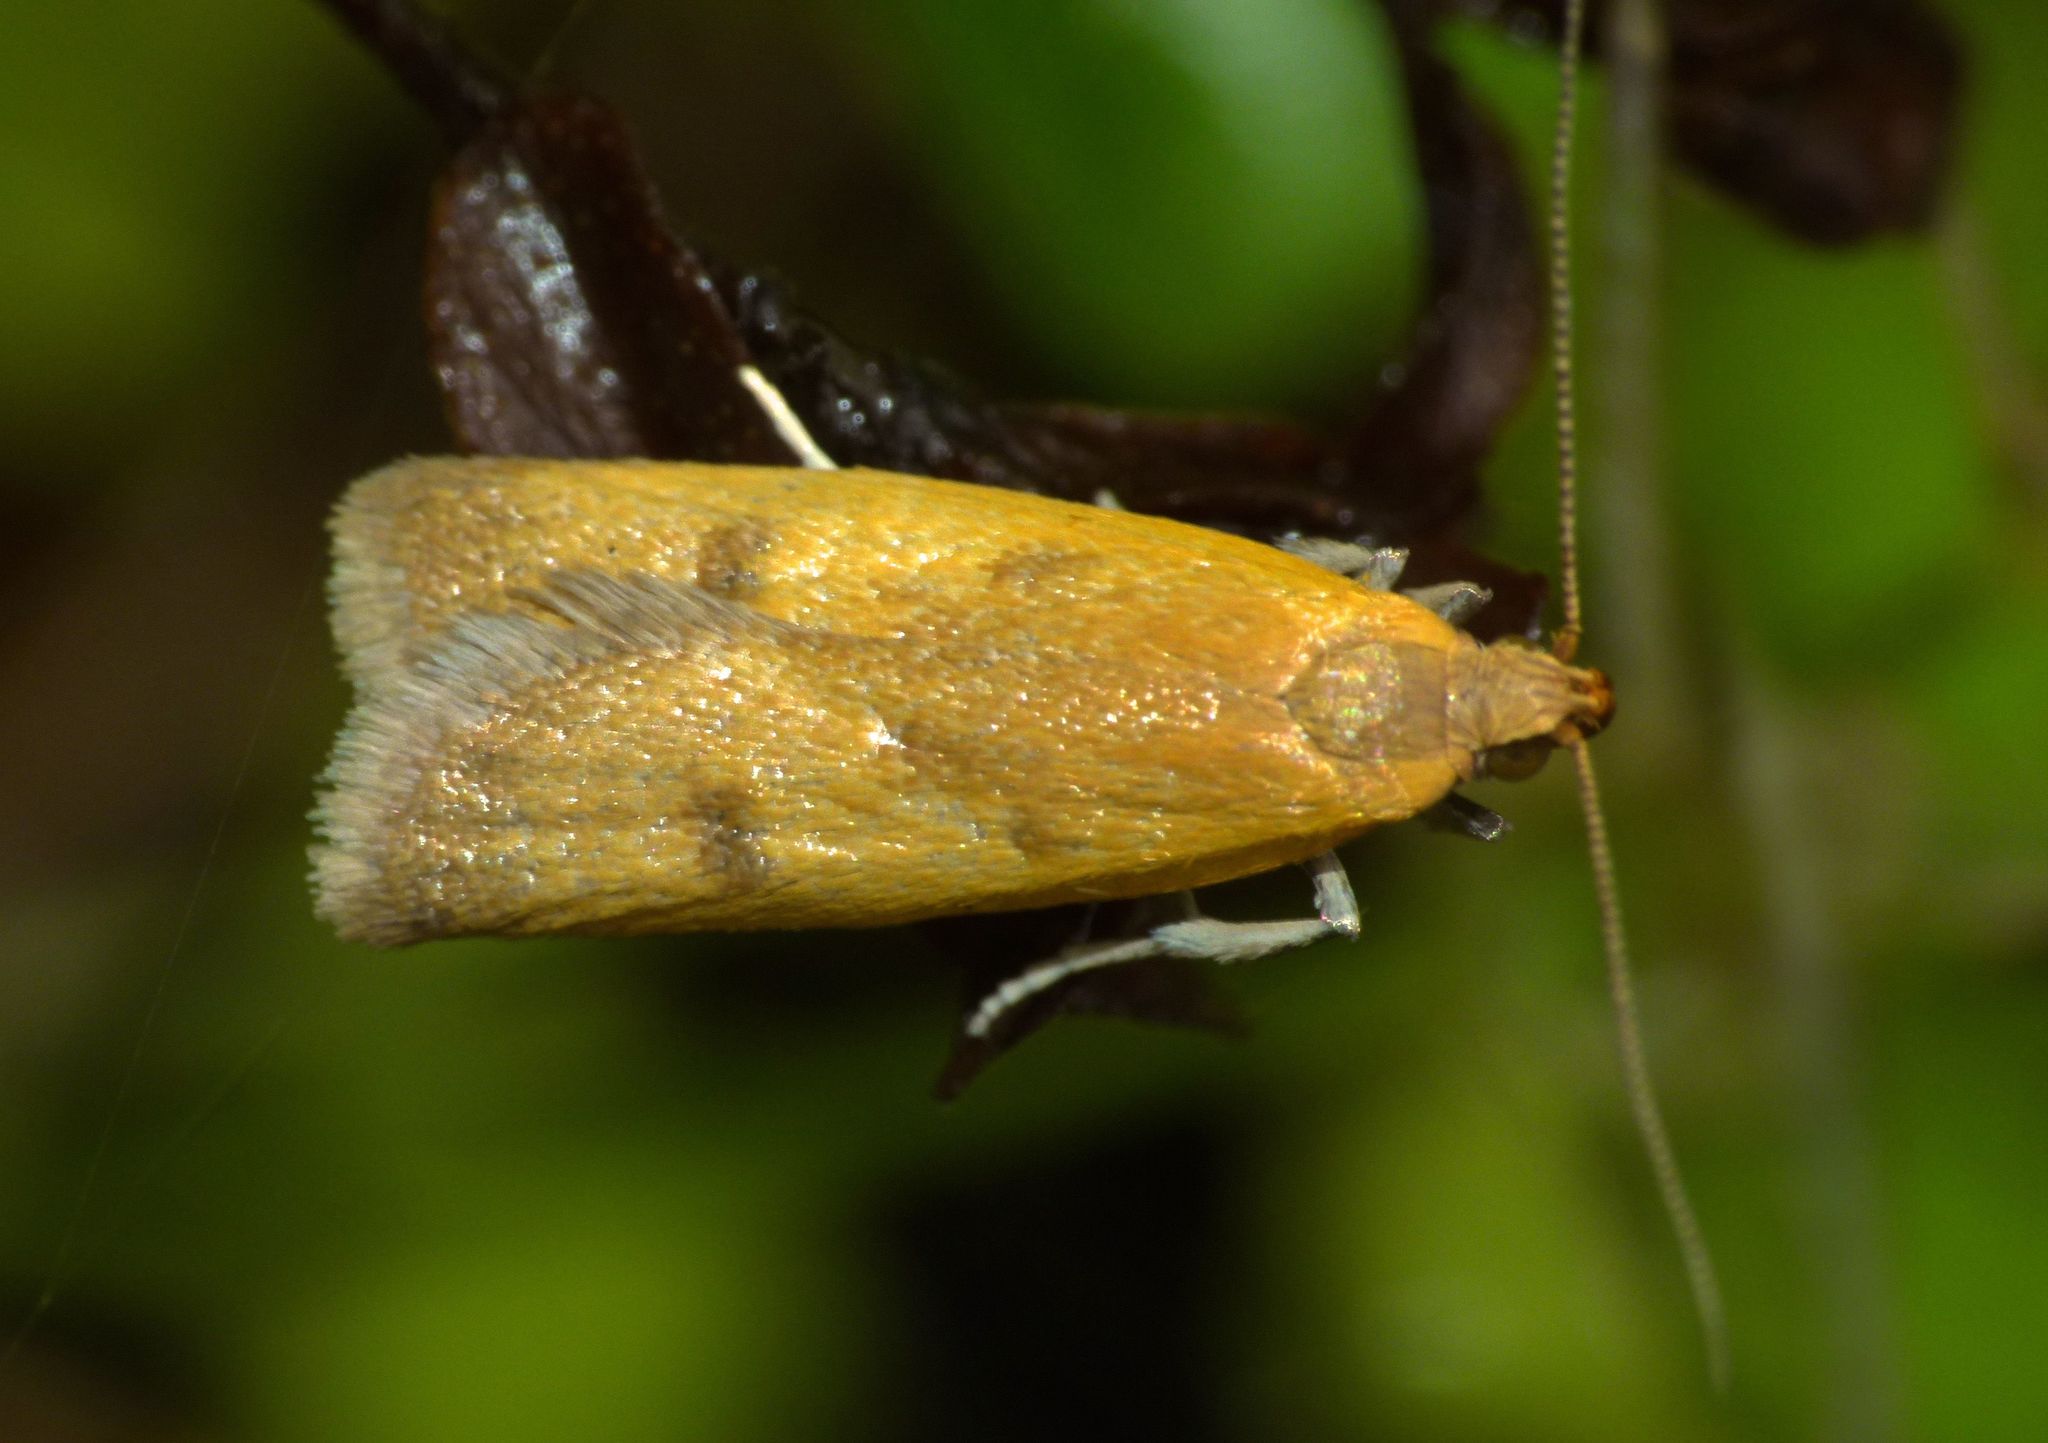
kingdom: Animalia
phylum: Arthropoda
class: Insecta
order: Lepidoptera
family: Oecophoridae
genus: Gymnobathra
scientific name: Gymnobathra parca
